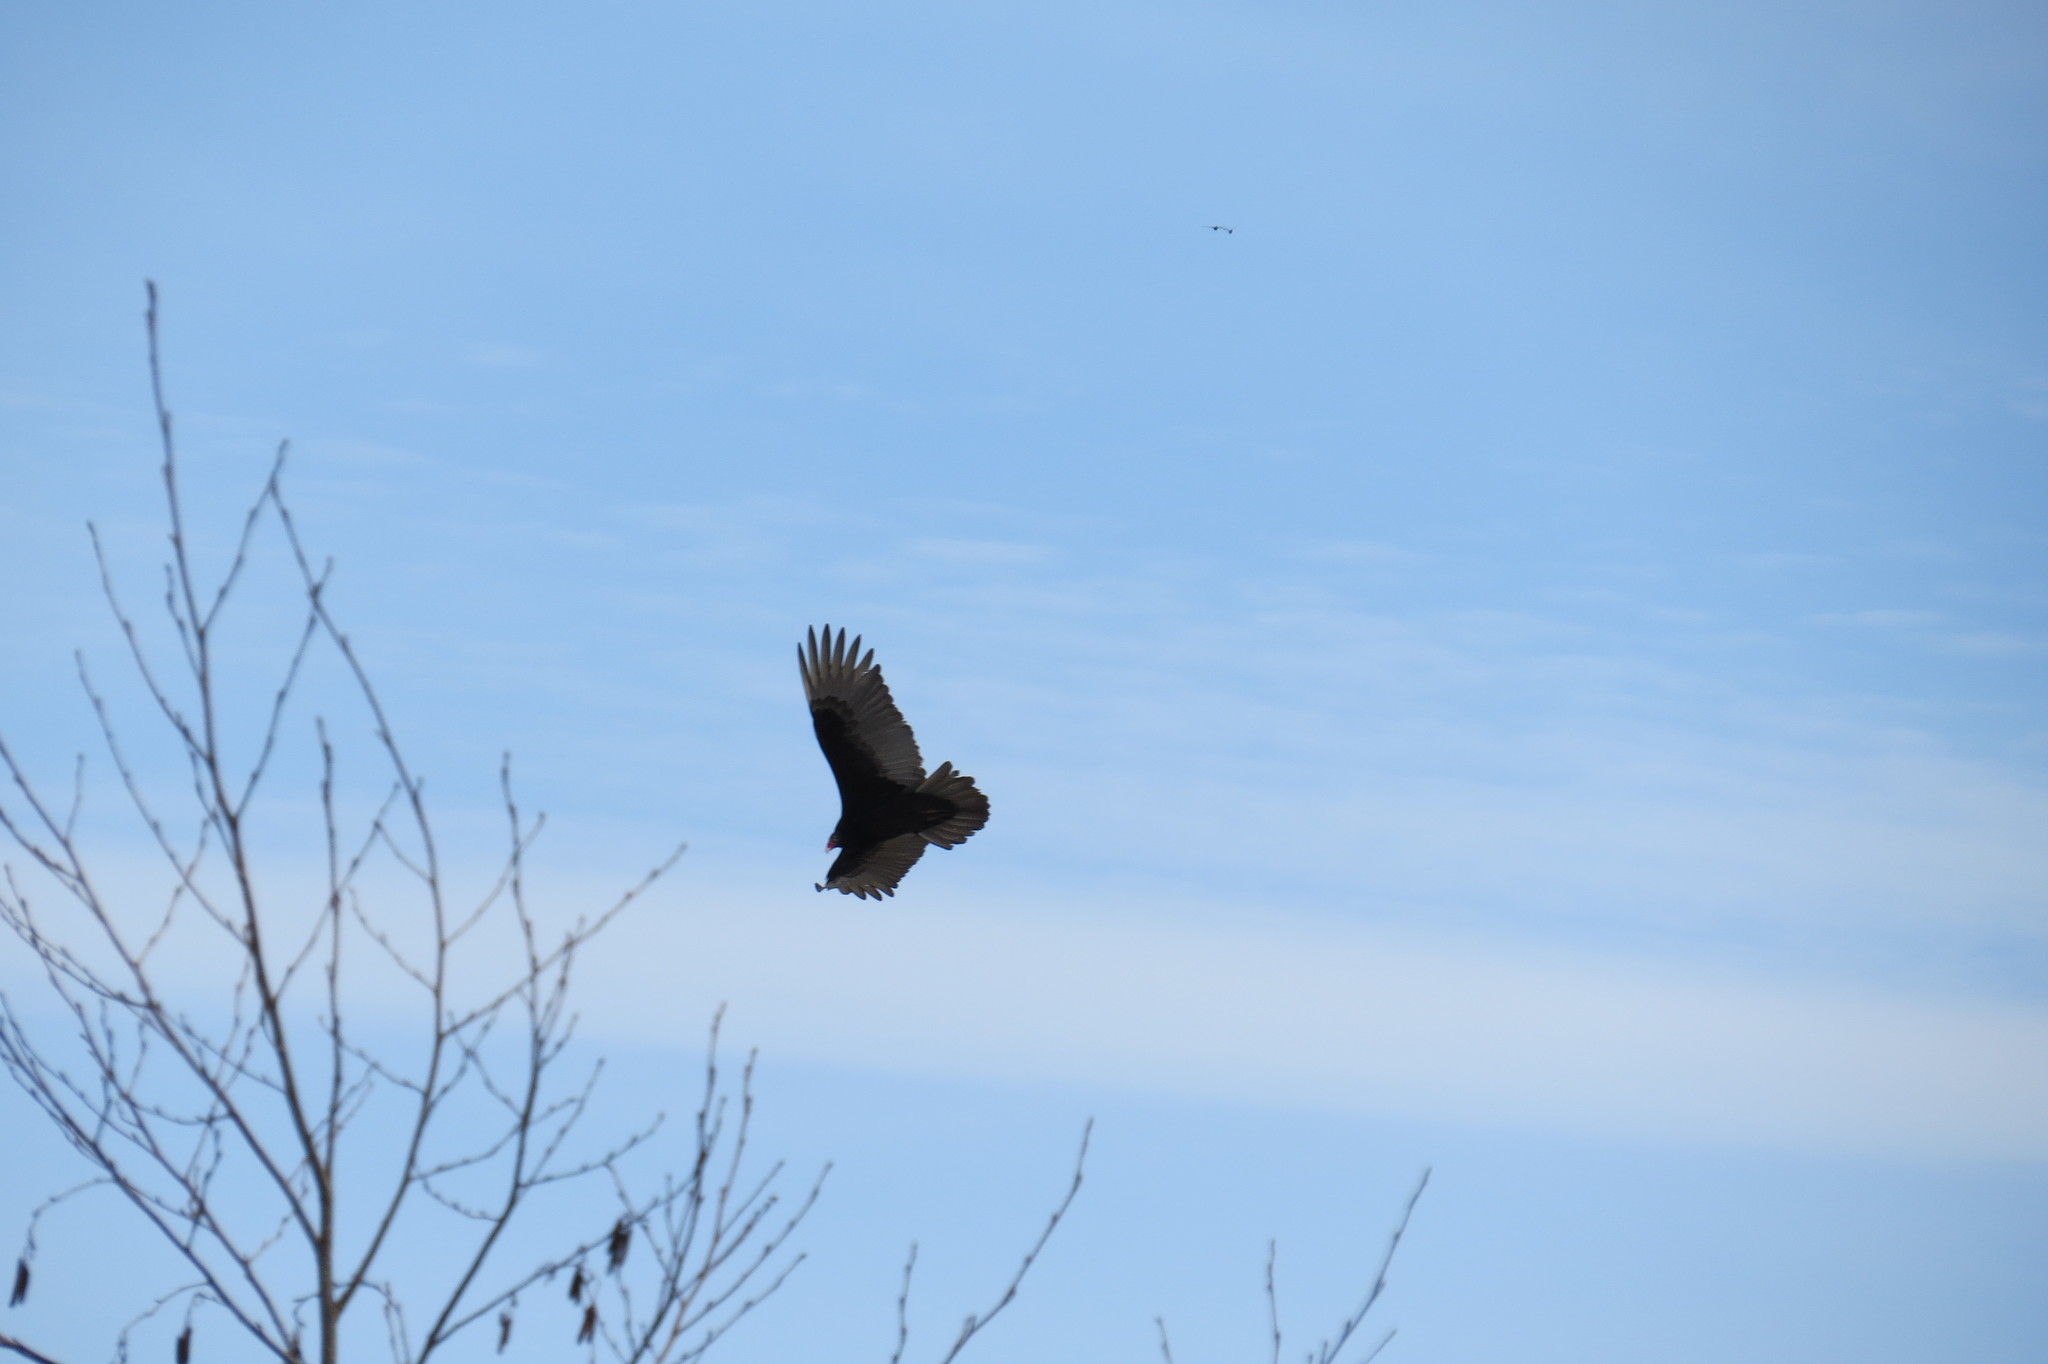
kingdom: Animalia
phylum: Chordata
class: Aves
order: Accipitriformes
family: Cathartidae
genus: Cathartes
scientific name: Cathartes aura
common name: Turkey vulture
